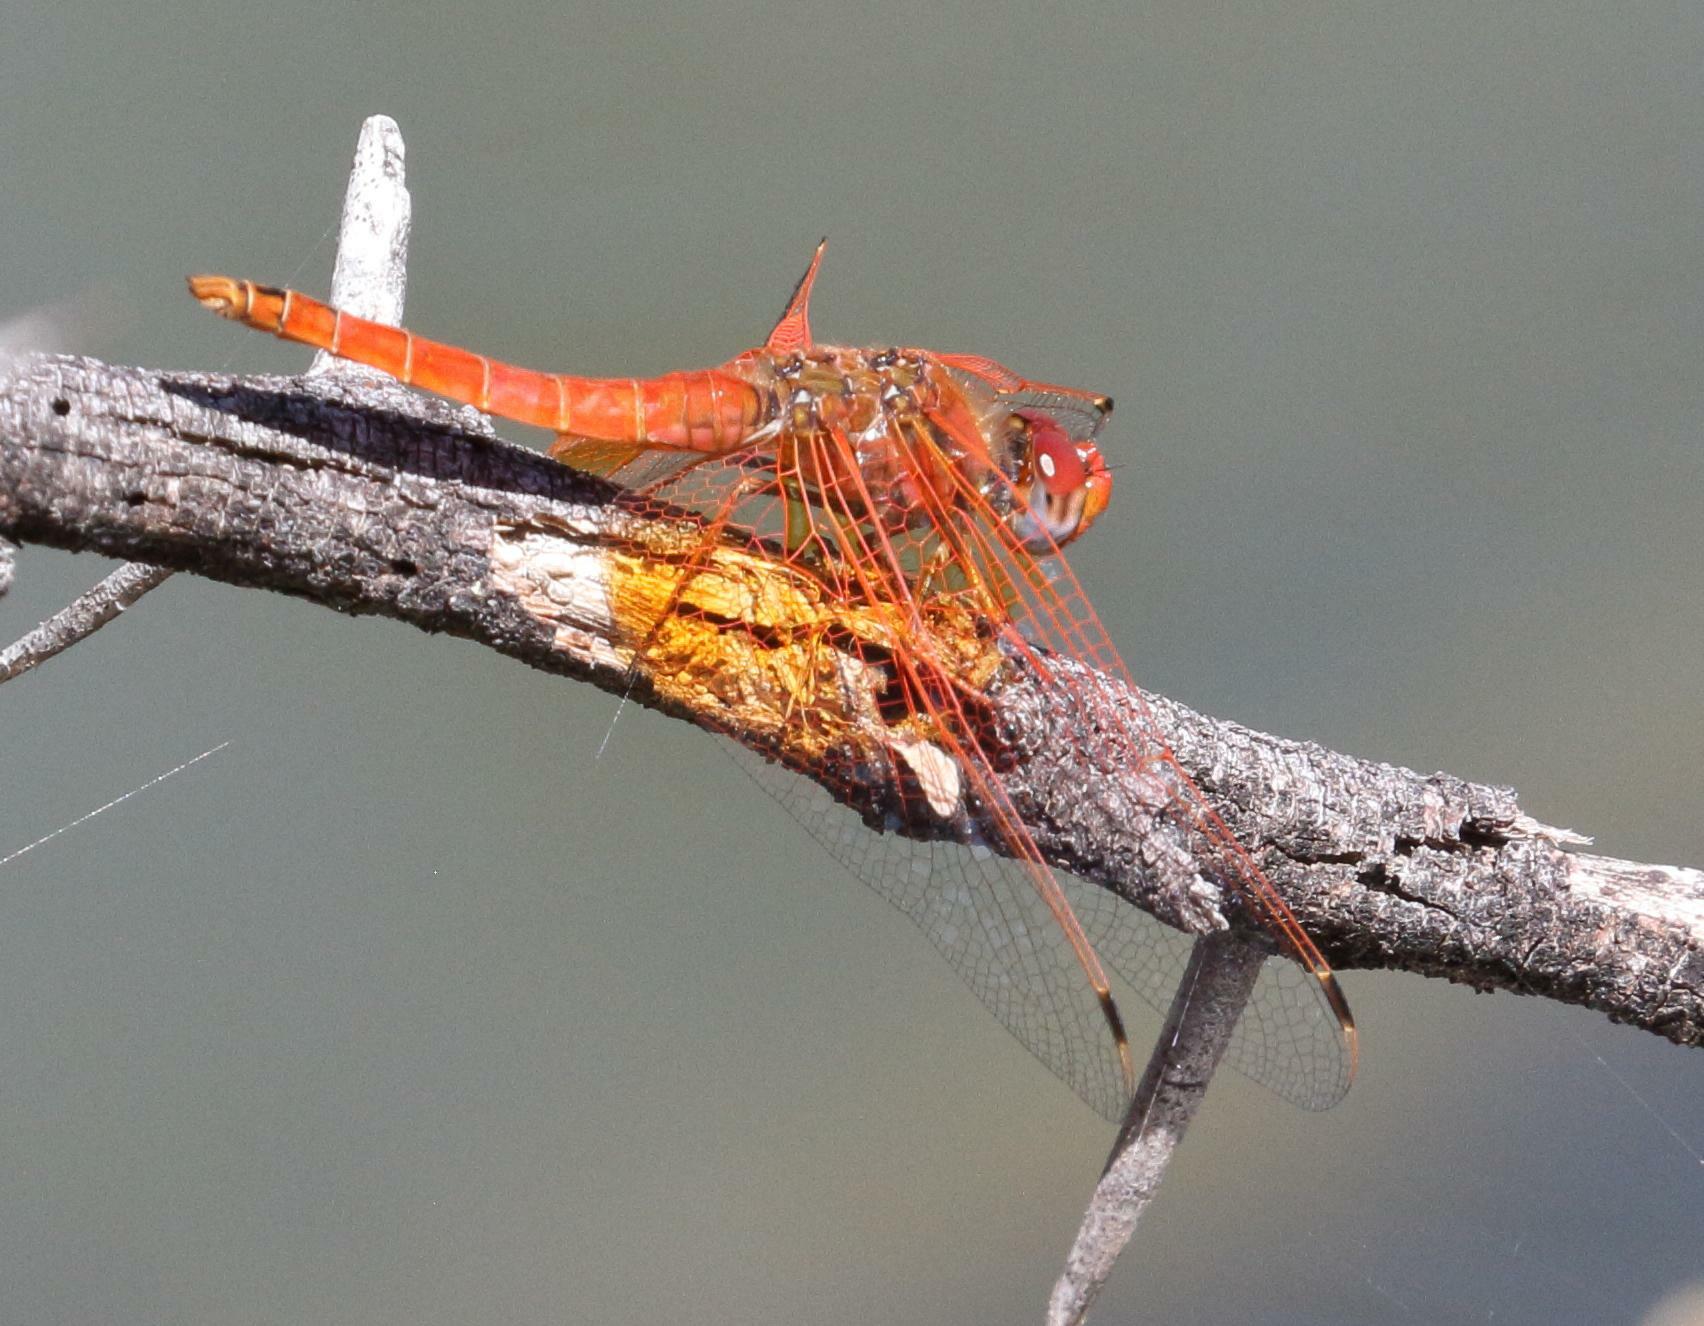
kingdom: Animalia
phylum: Arthropoda
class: Insecta
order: Odonata
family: Libellulidae
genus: Trithemis
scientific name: Trithemis kirbyi
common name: Kirby's dropwing
